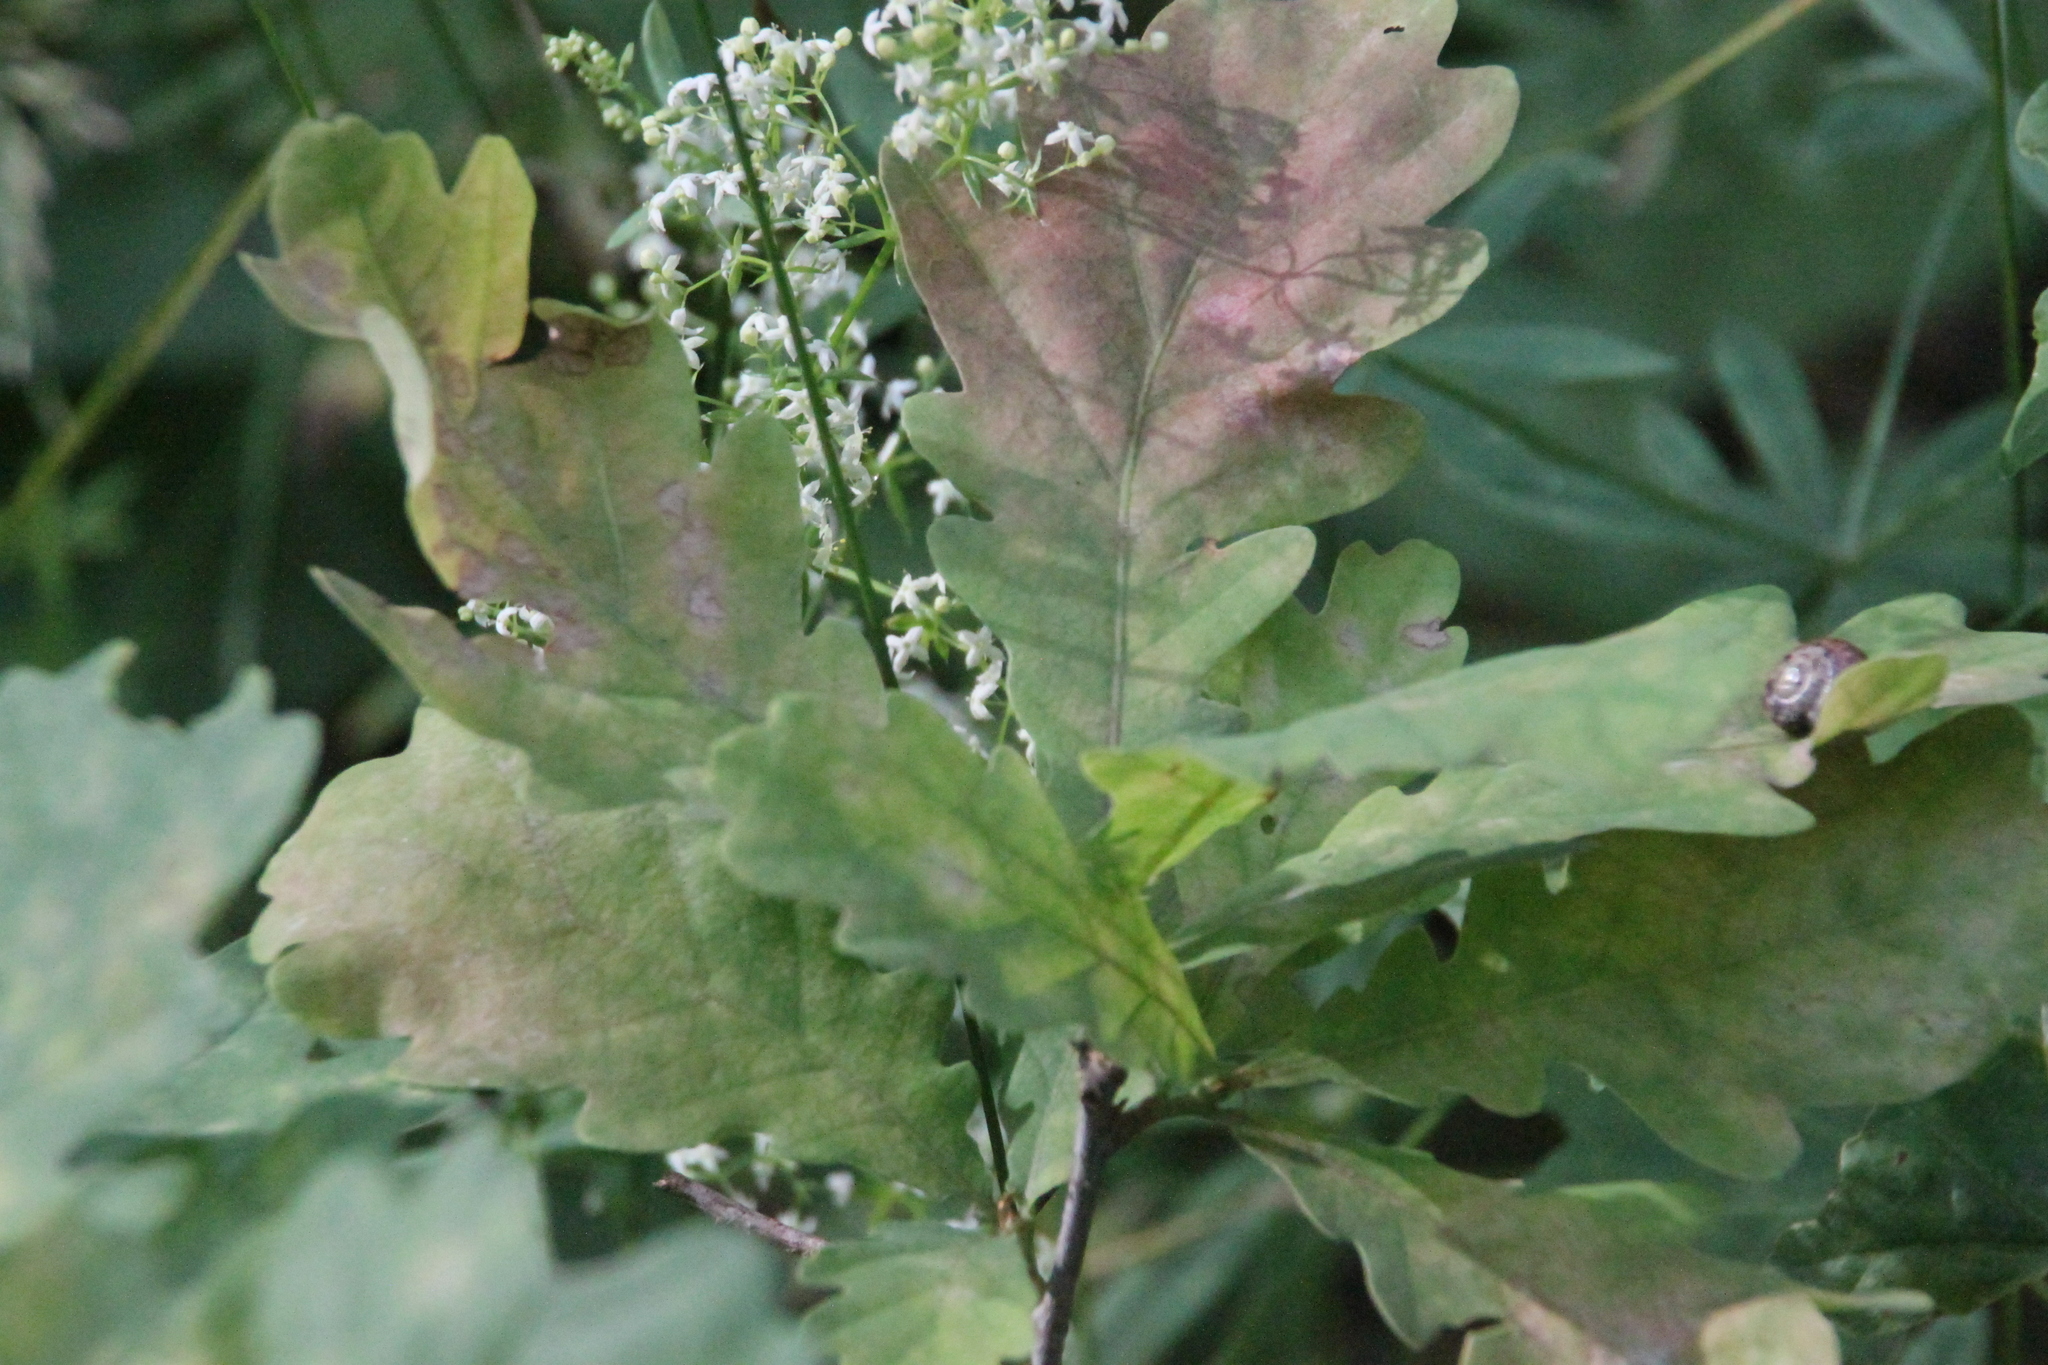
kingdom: Plantae
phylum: Tracheophyta
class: Magnoliopsida
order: Fagales
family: Fagaceae
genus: Quercus
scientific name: Quercus robur
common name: Pedunculate oak
